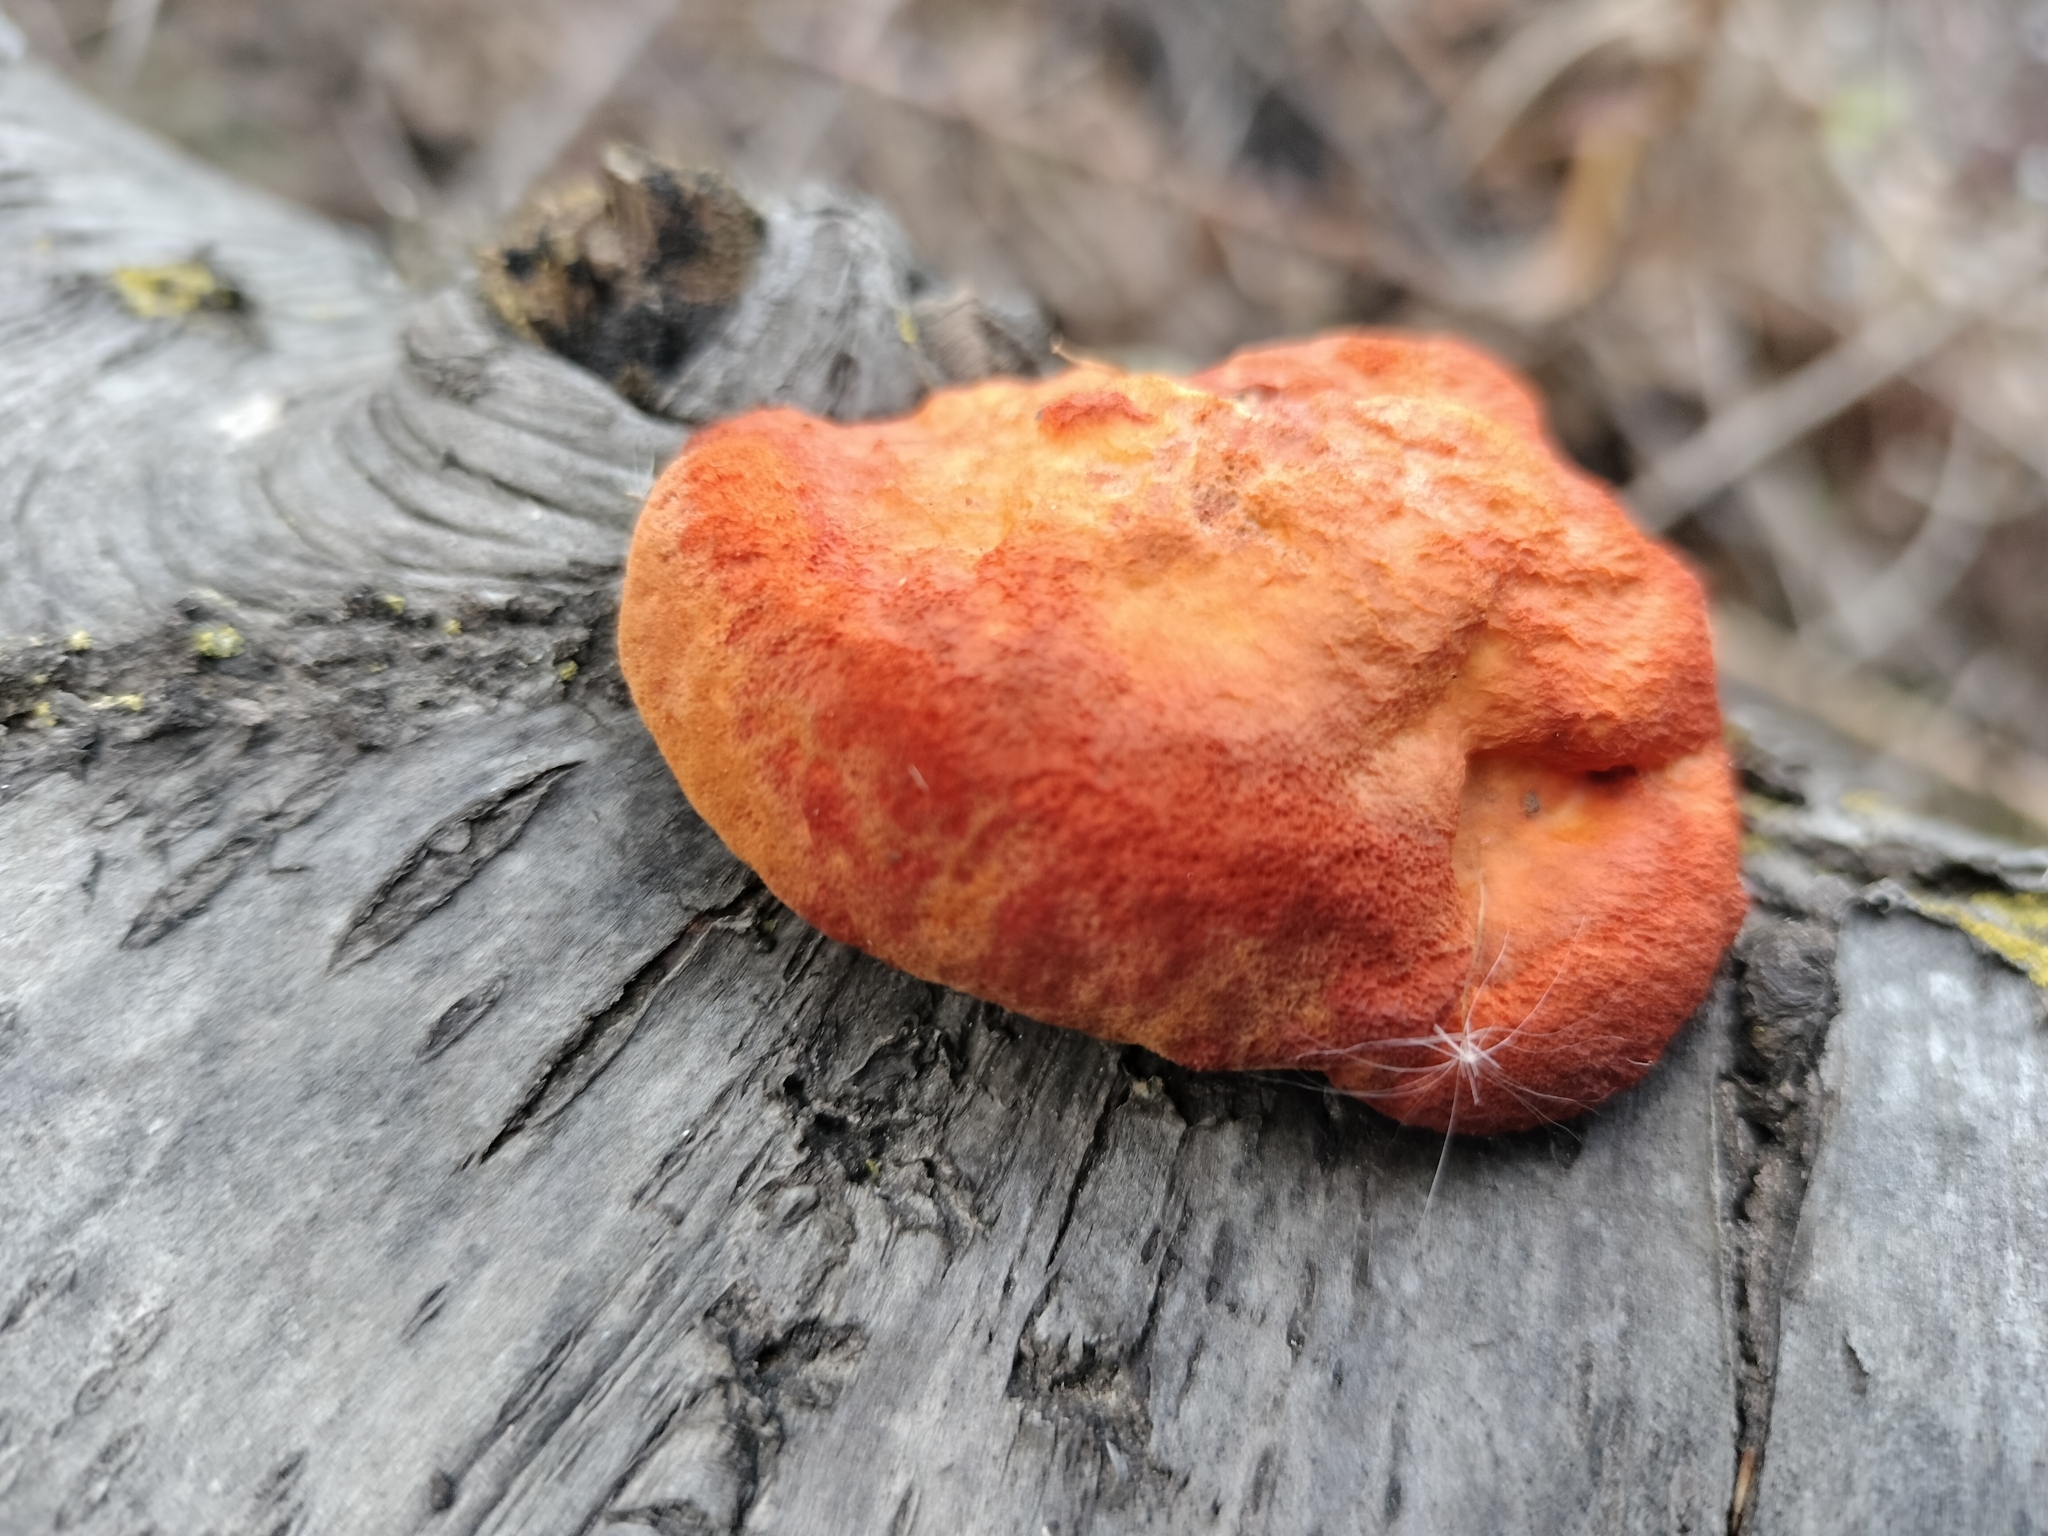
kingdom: Fungi
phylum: Basidiomycota
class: Agaricomycetes
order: Polyporales
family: Polyporaceae
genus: Trametes
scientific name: Trametes cinnabarina
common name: Northern cinnabar polypore
